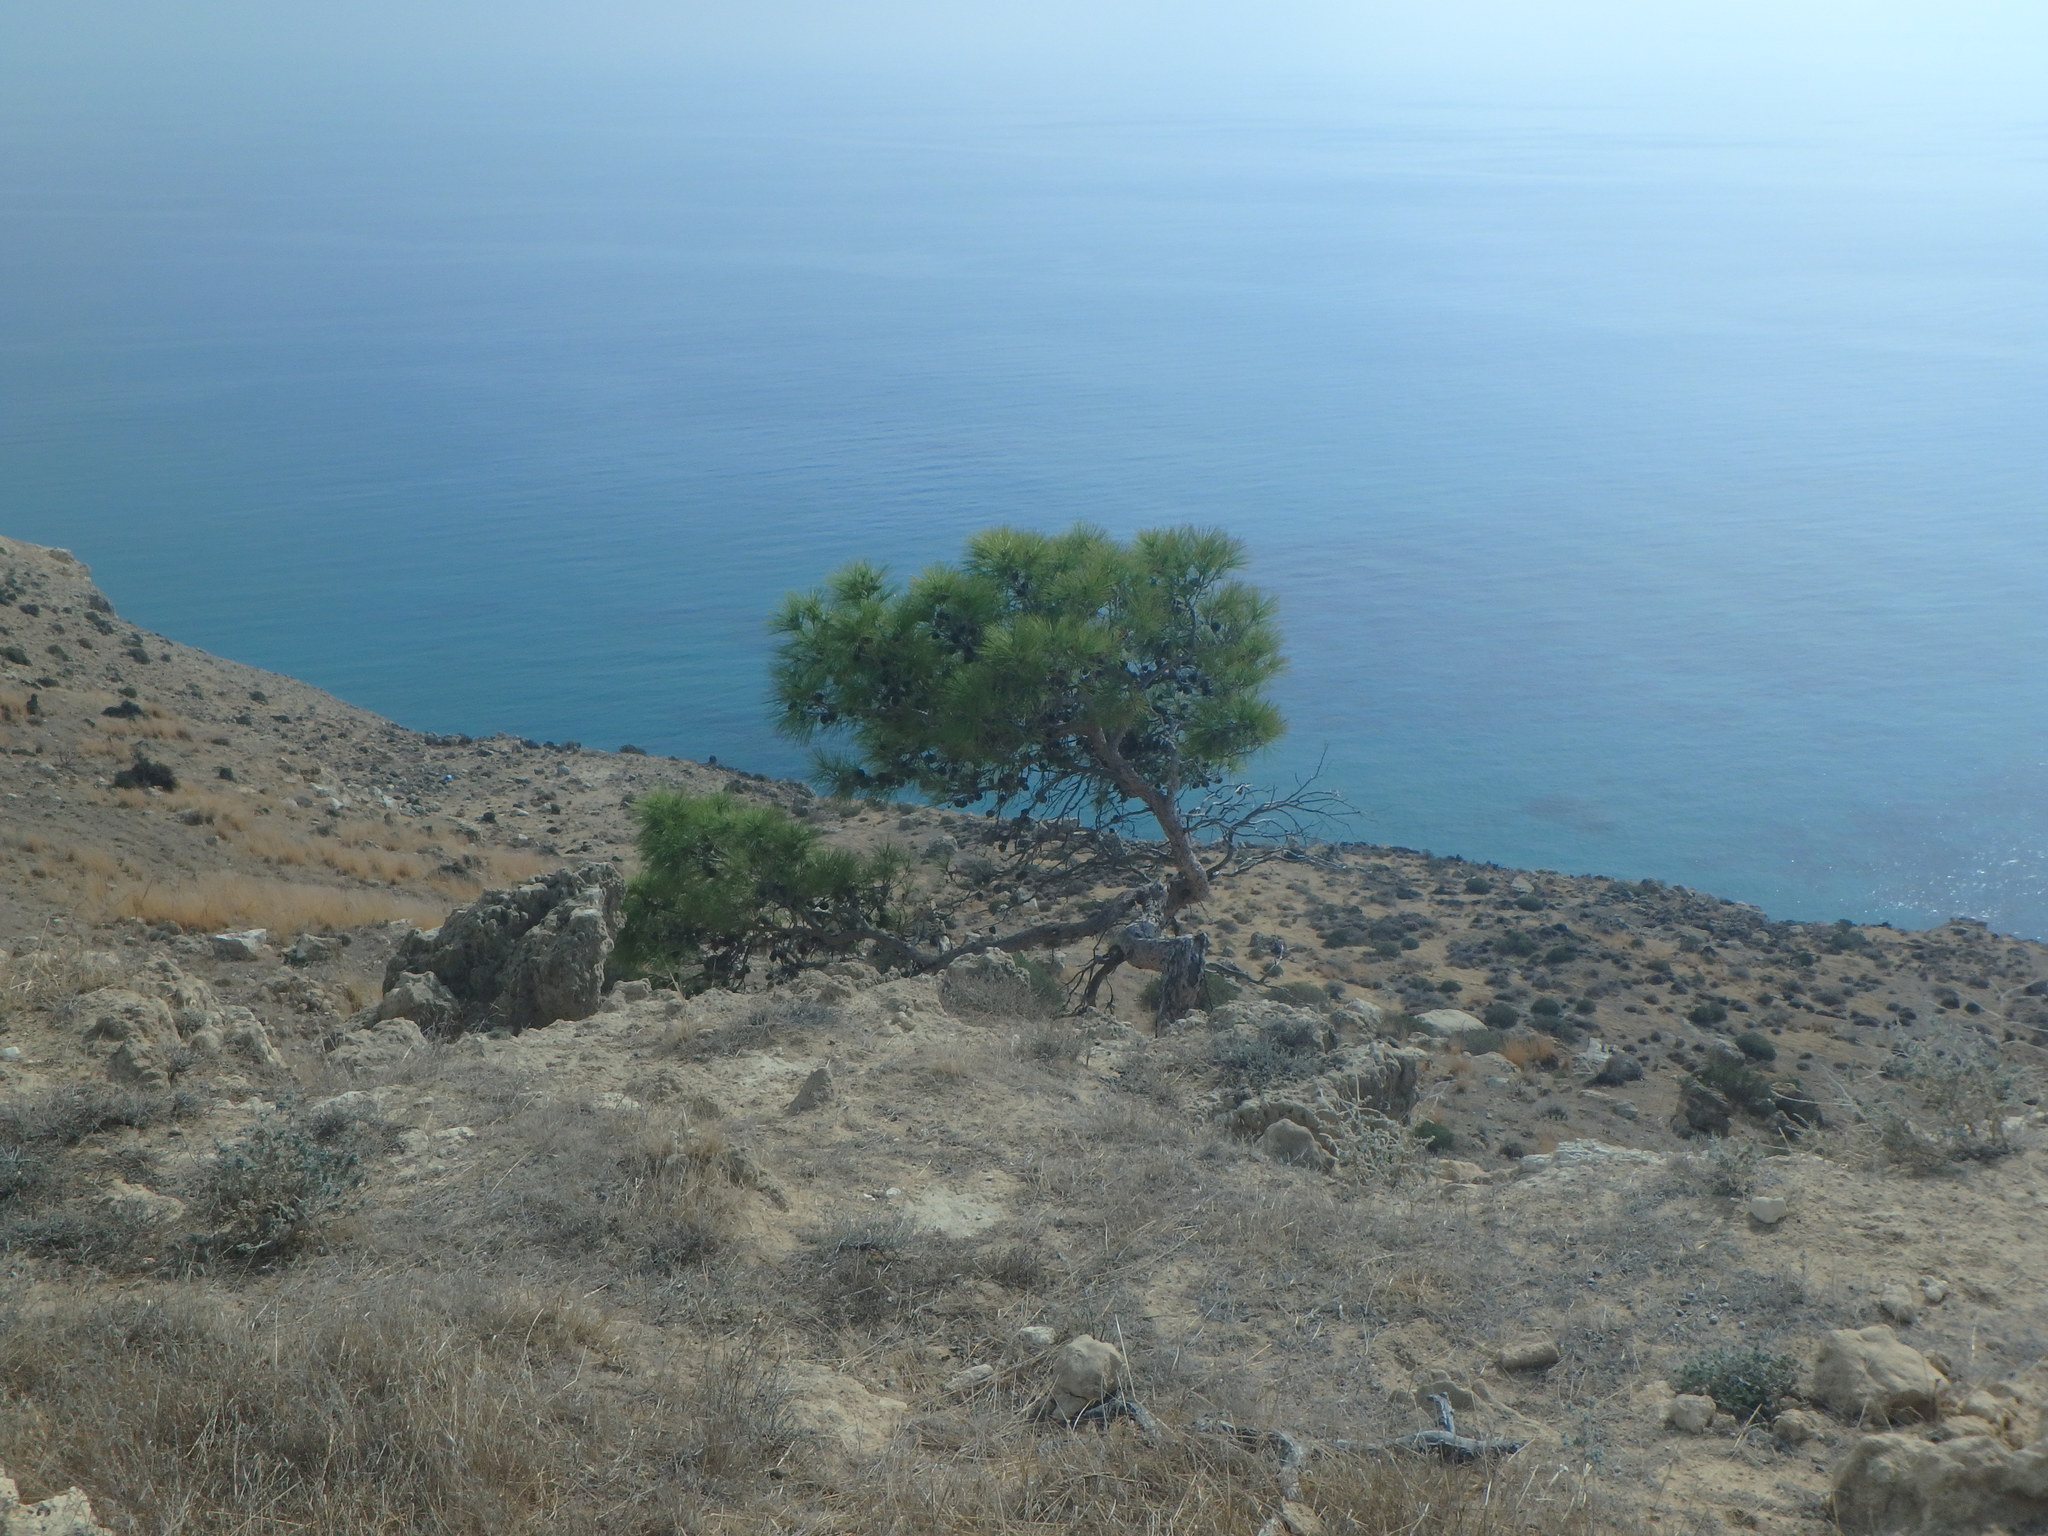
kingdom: Plantae
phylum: Tracheophyta
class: Pinopsida
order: Pinales
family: Pinaceae
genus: Pinus
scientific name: Pinus brutia
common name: Turkish pine
